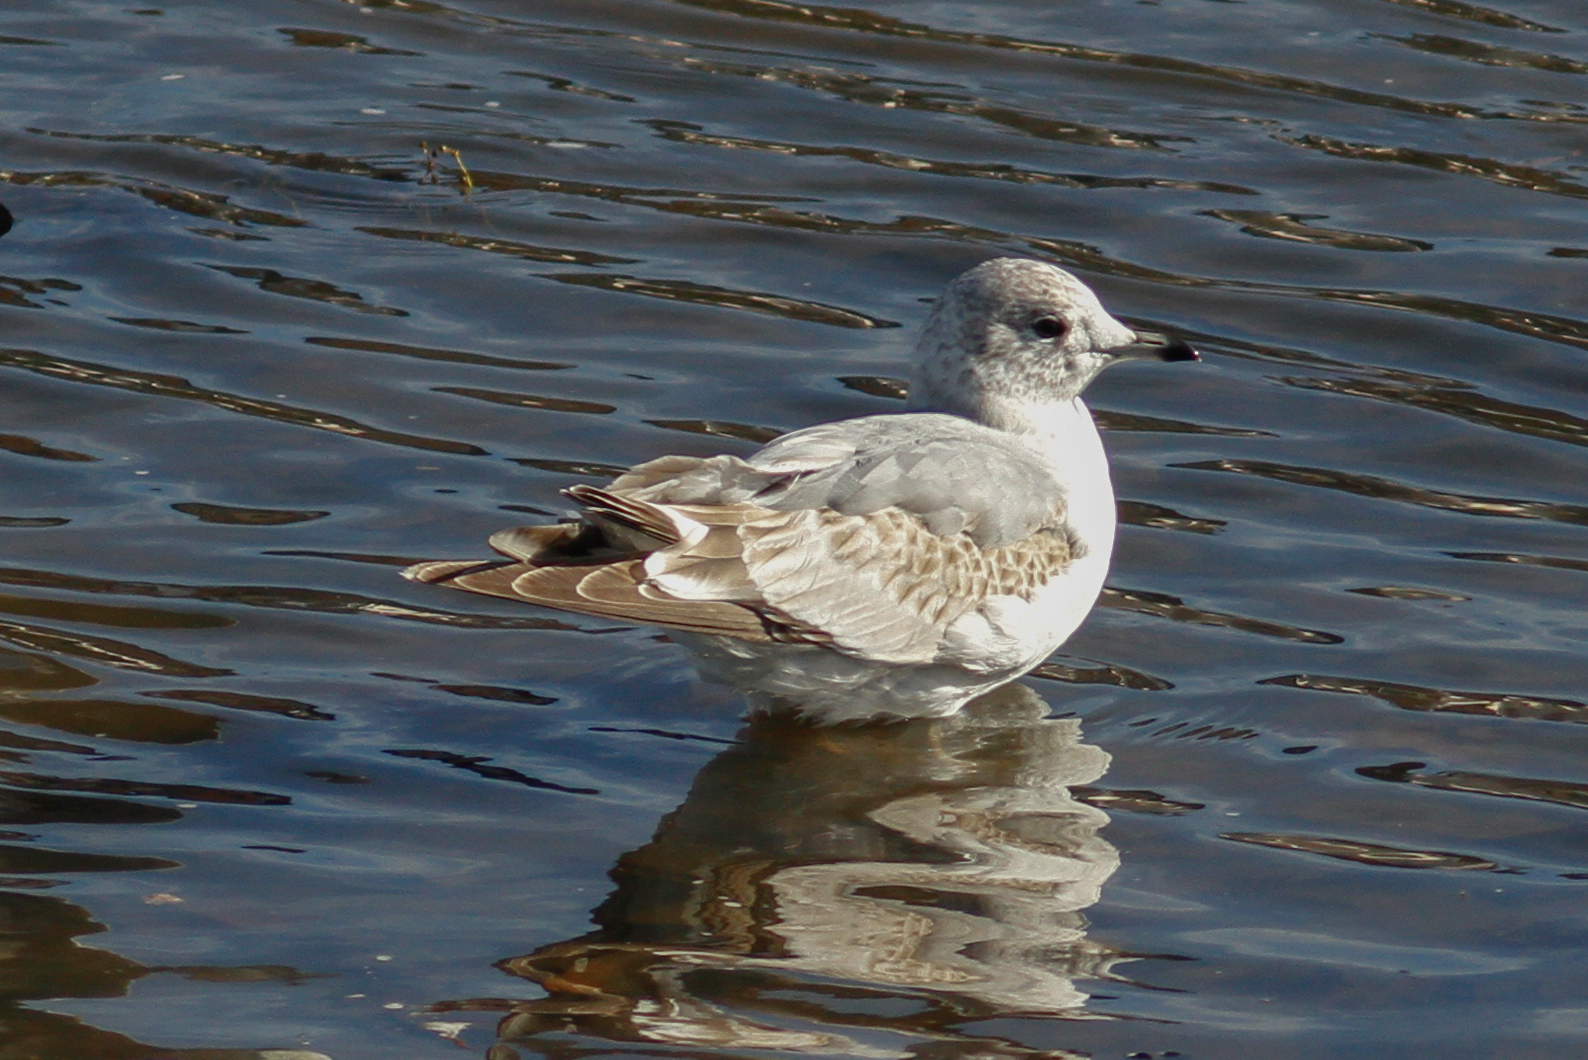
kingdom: Animalia
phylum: Chordata
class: Aves
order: Charadriiformes
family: Laridae
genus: Larus
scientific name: Larus canus
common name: Mew gull
